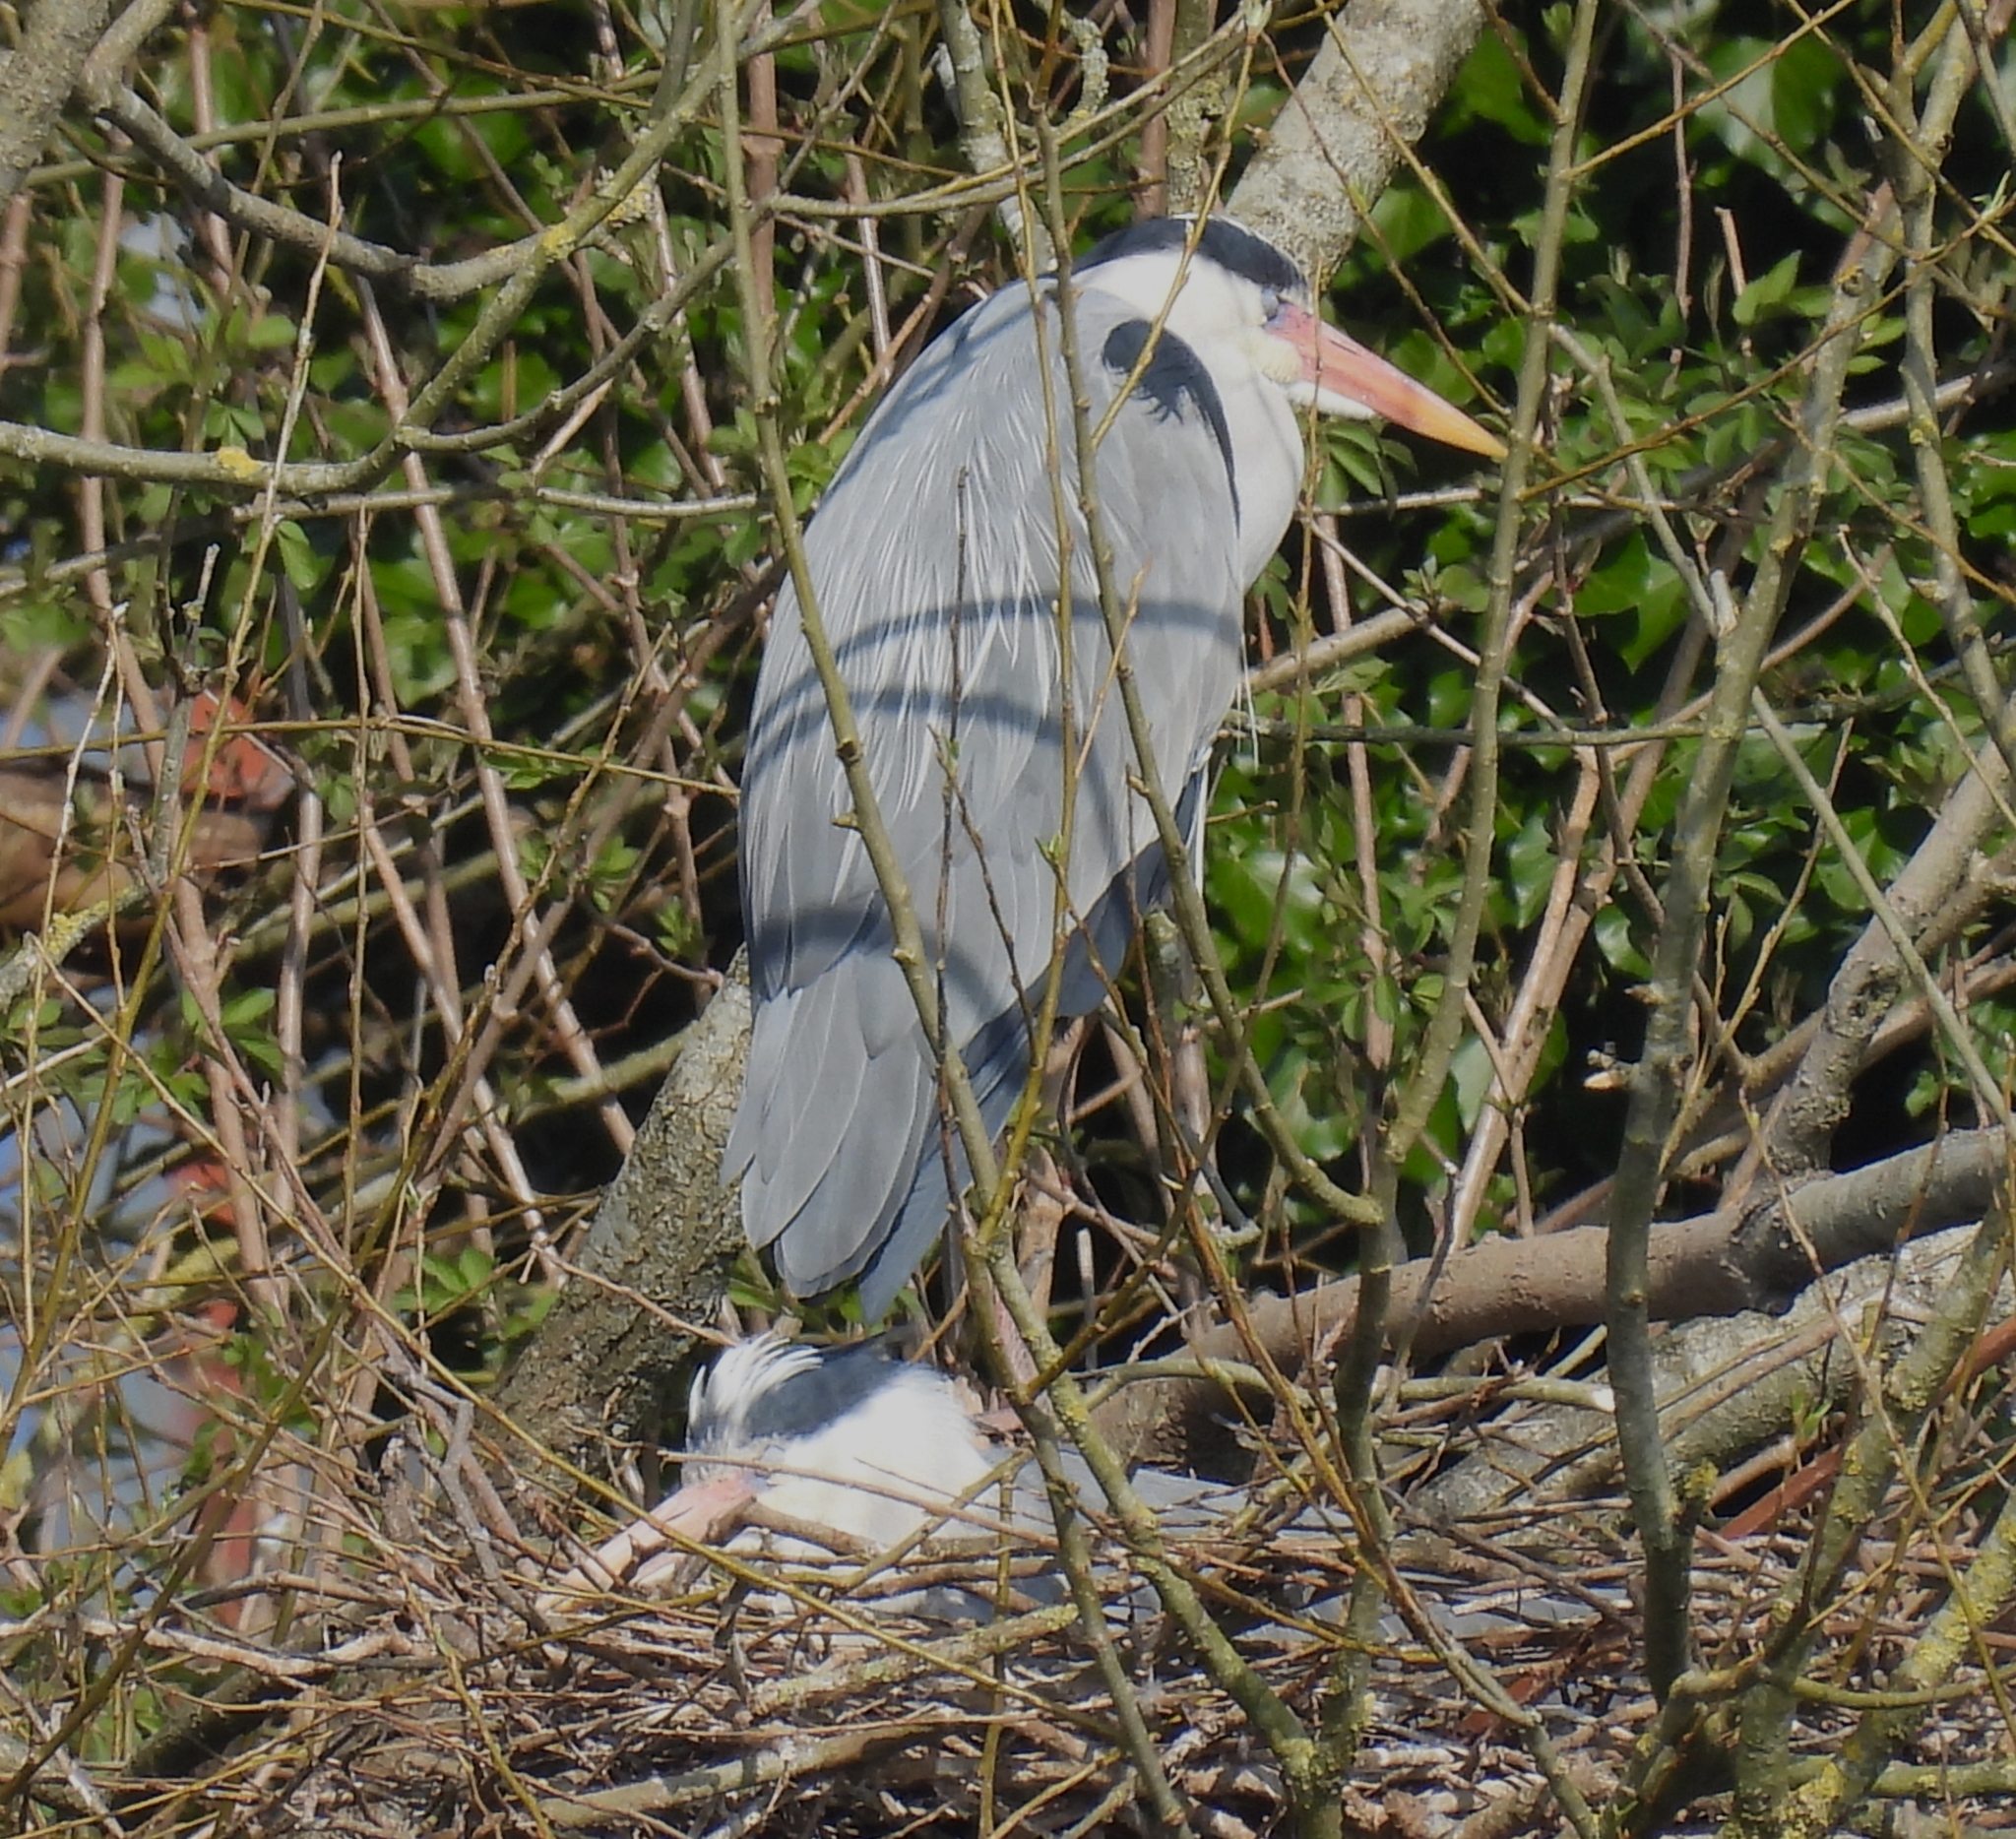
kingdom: Animalia
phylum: Chordata
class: Aves
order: Pelecaniformes
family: Ardeidae
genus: Ardea
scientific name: Ardea cinerea
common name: Grey heron
